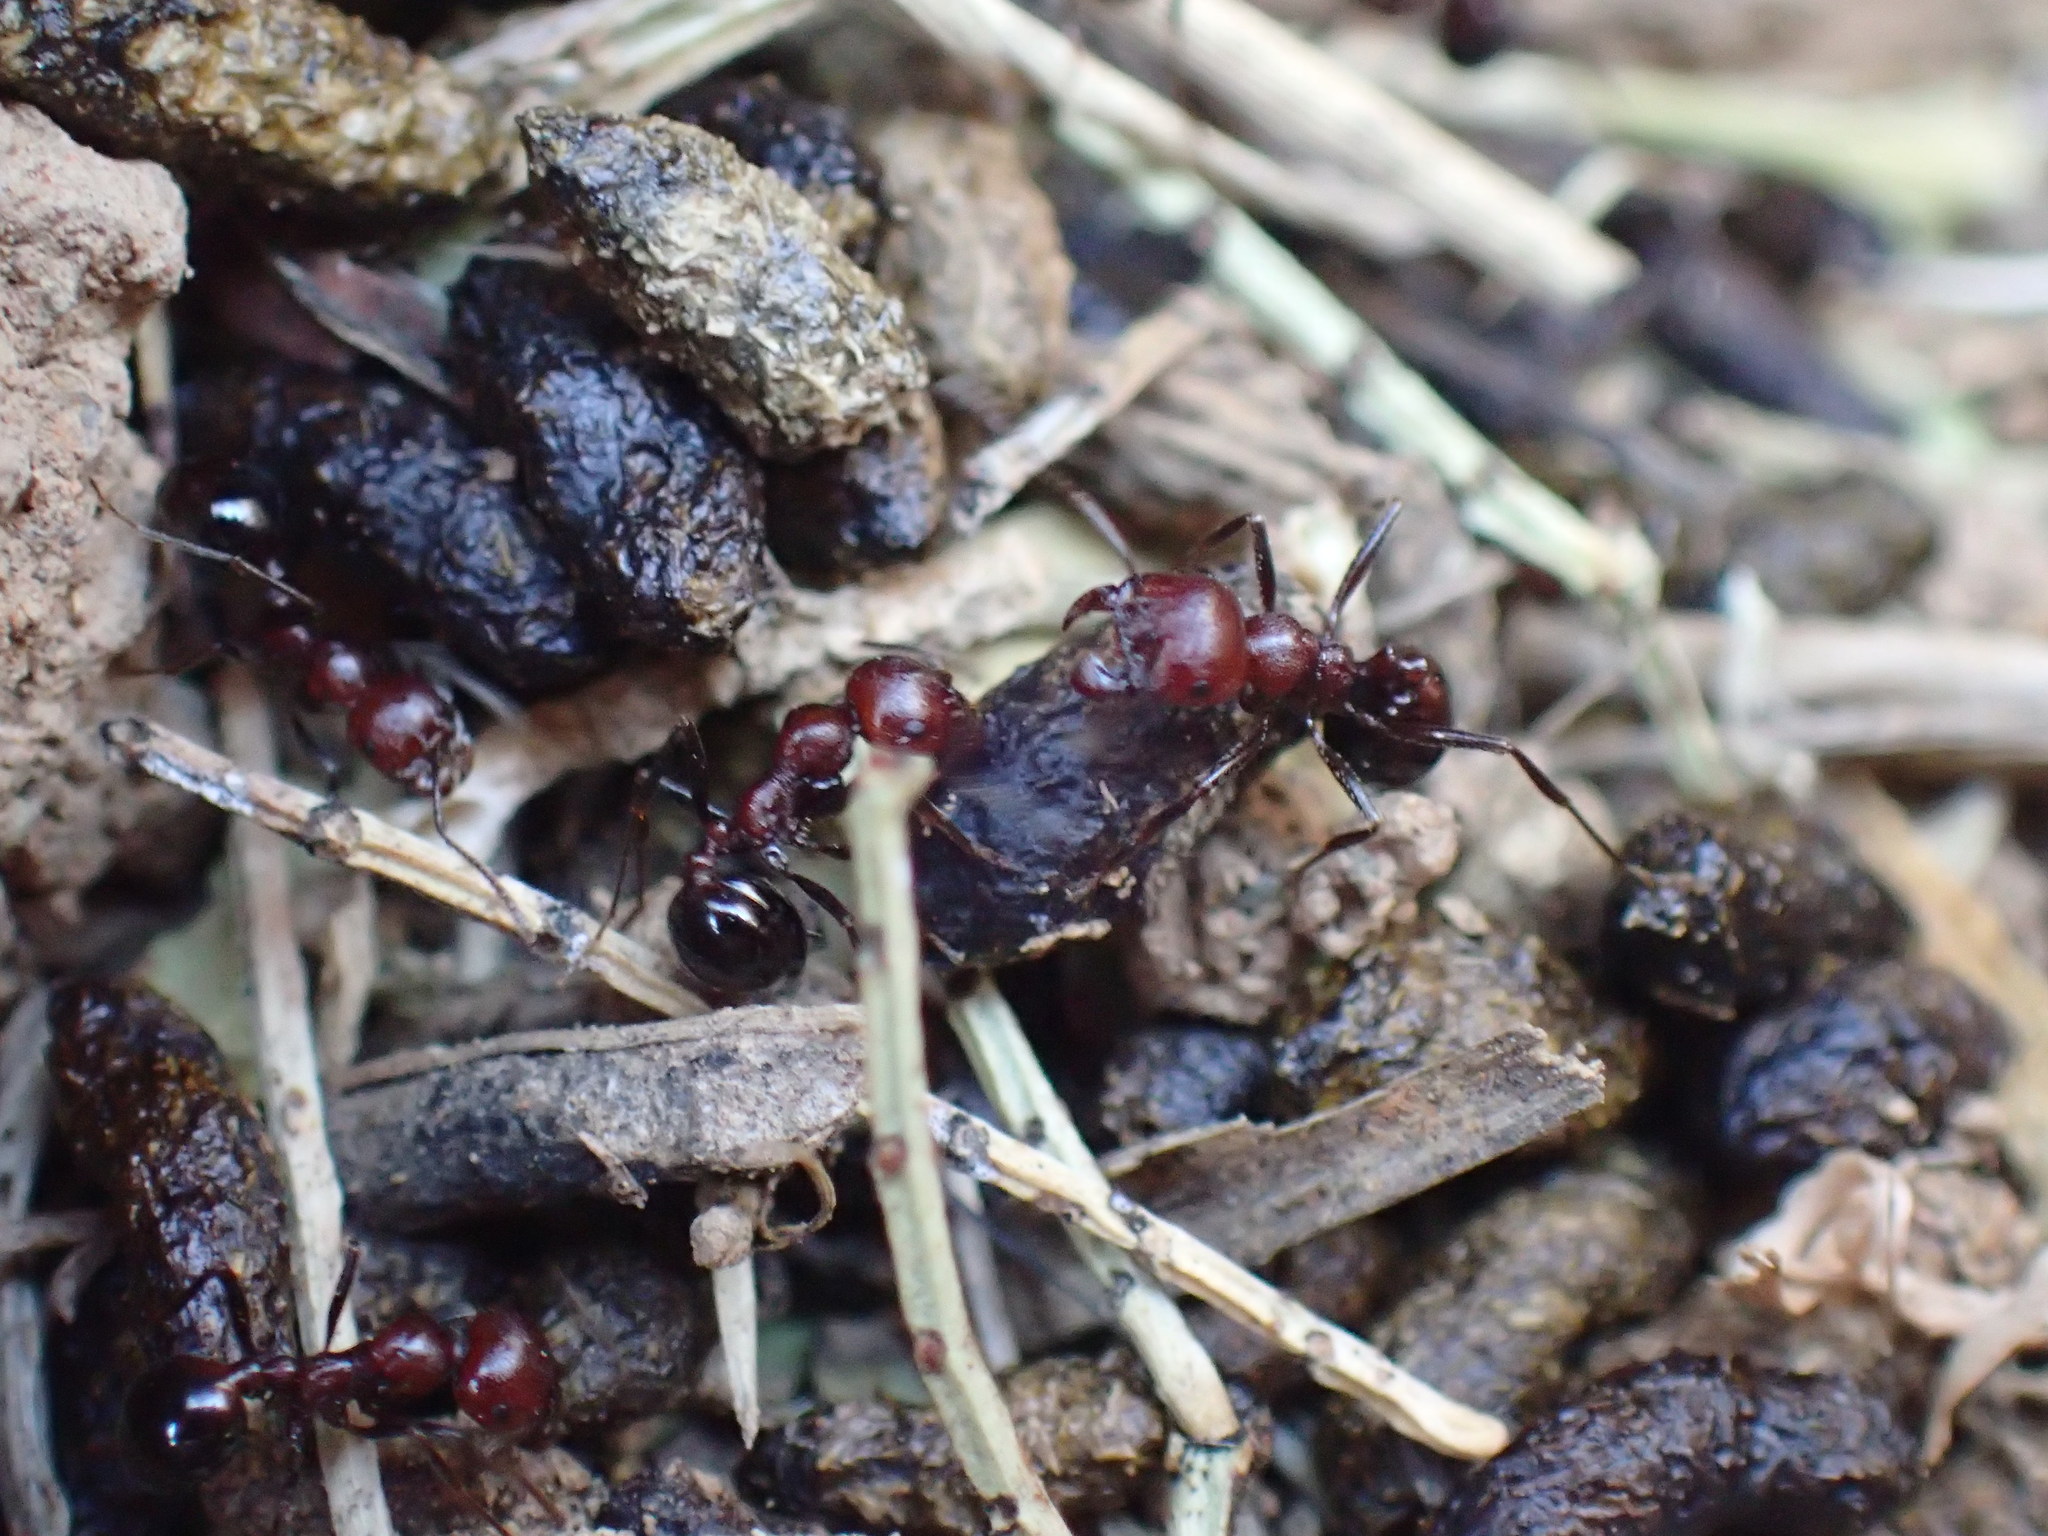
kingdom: Animalia
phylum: Arthropoda
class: Insecta
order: Hymenoptera
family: Formicidae
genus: Messor
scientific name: Messor capensis
